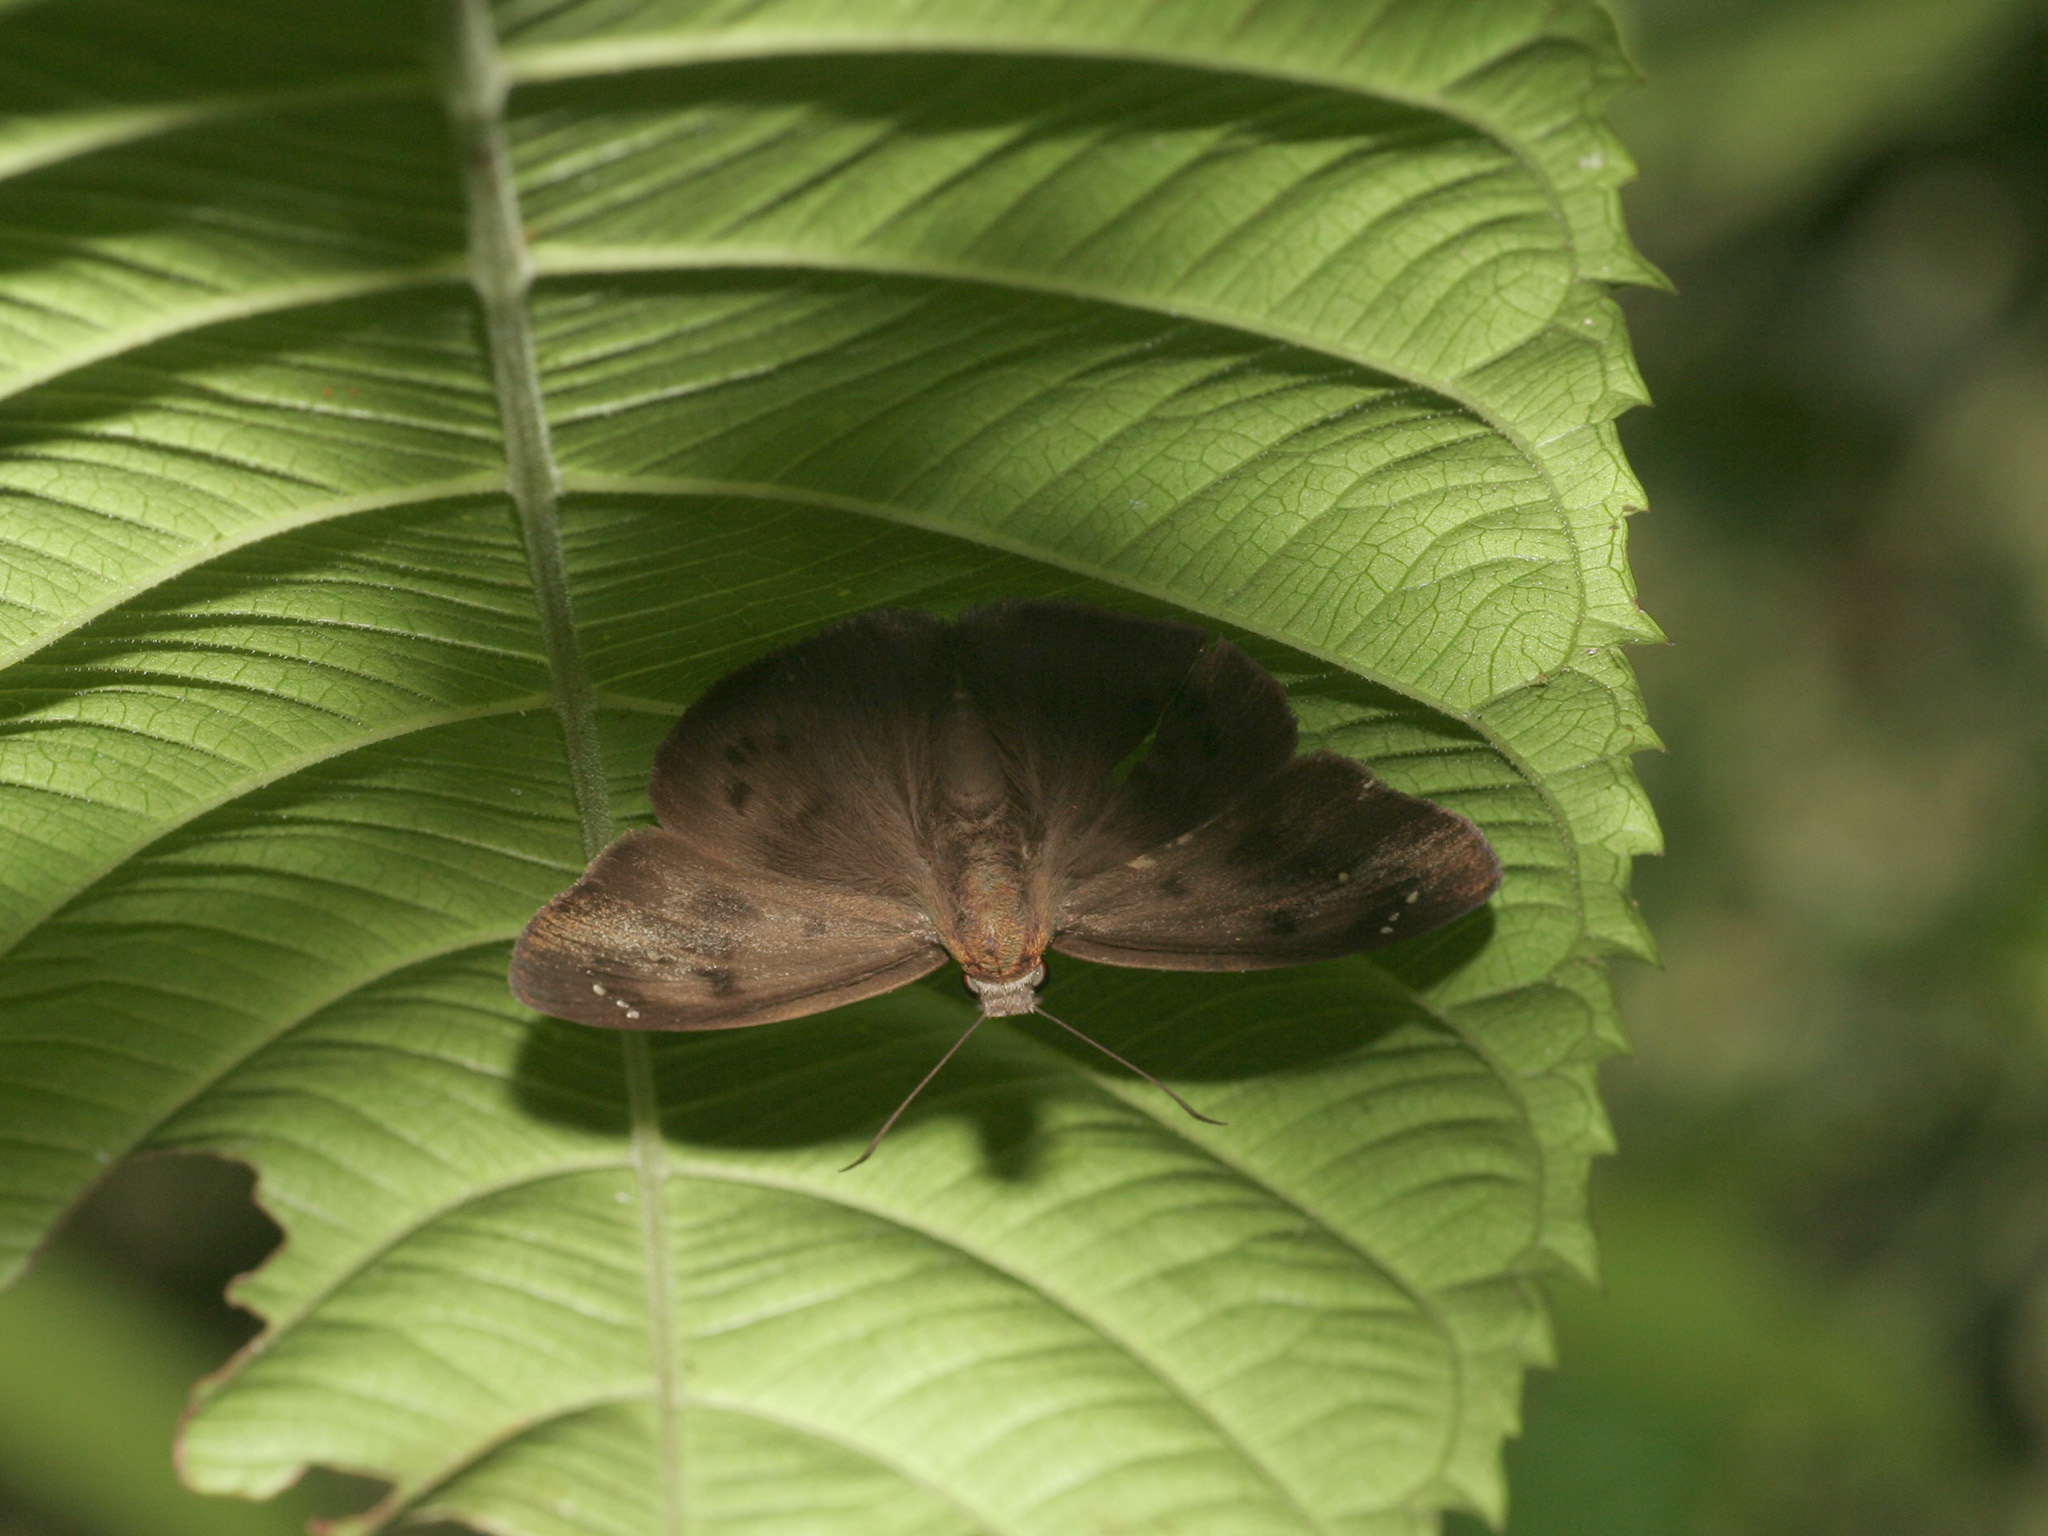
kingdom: Animalia
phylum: Arthropoda
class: Insecta
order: Lepidoptera
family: Hesperiidae
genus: Tagiades
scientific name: Tagiades japetus
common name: Pied flat
